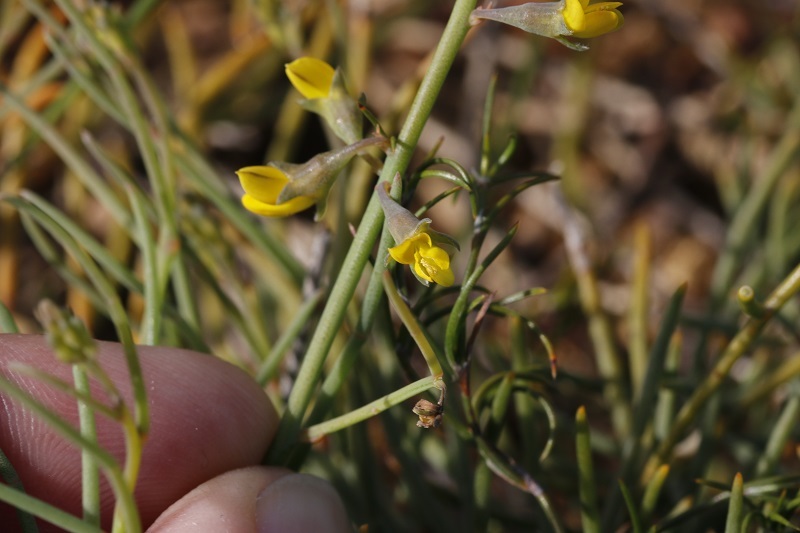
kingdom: Plantae
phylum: Tracheophyta
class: Magnoliopsida
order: Fabales
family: Fabaceae
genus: Lebeckia
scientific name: Lebeckia contaminata
